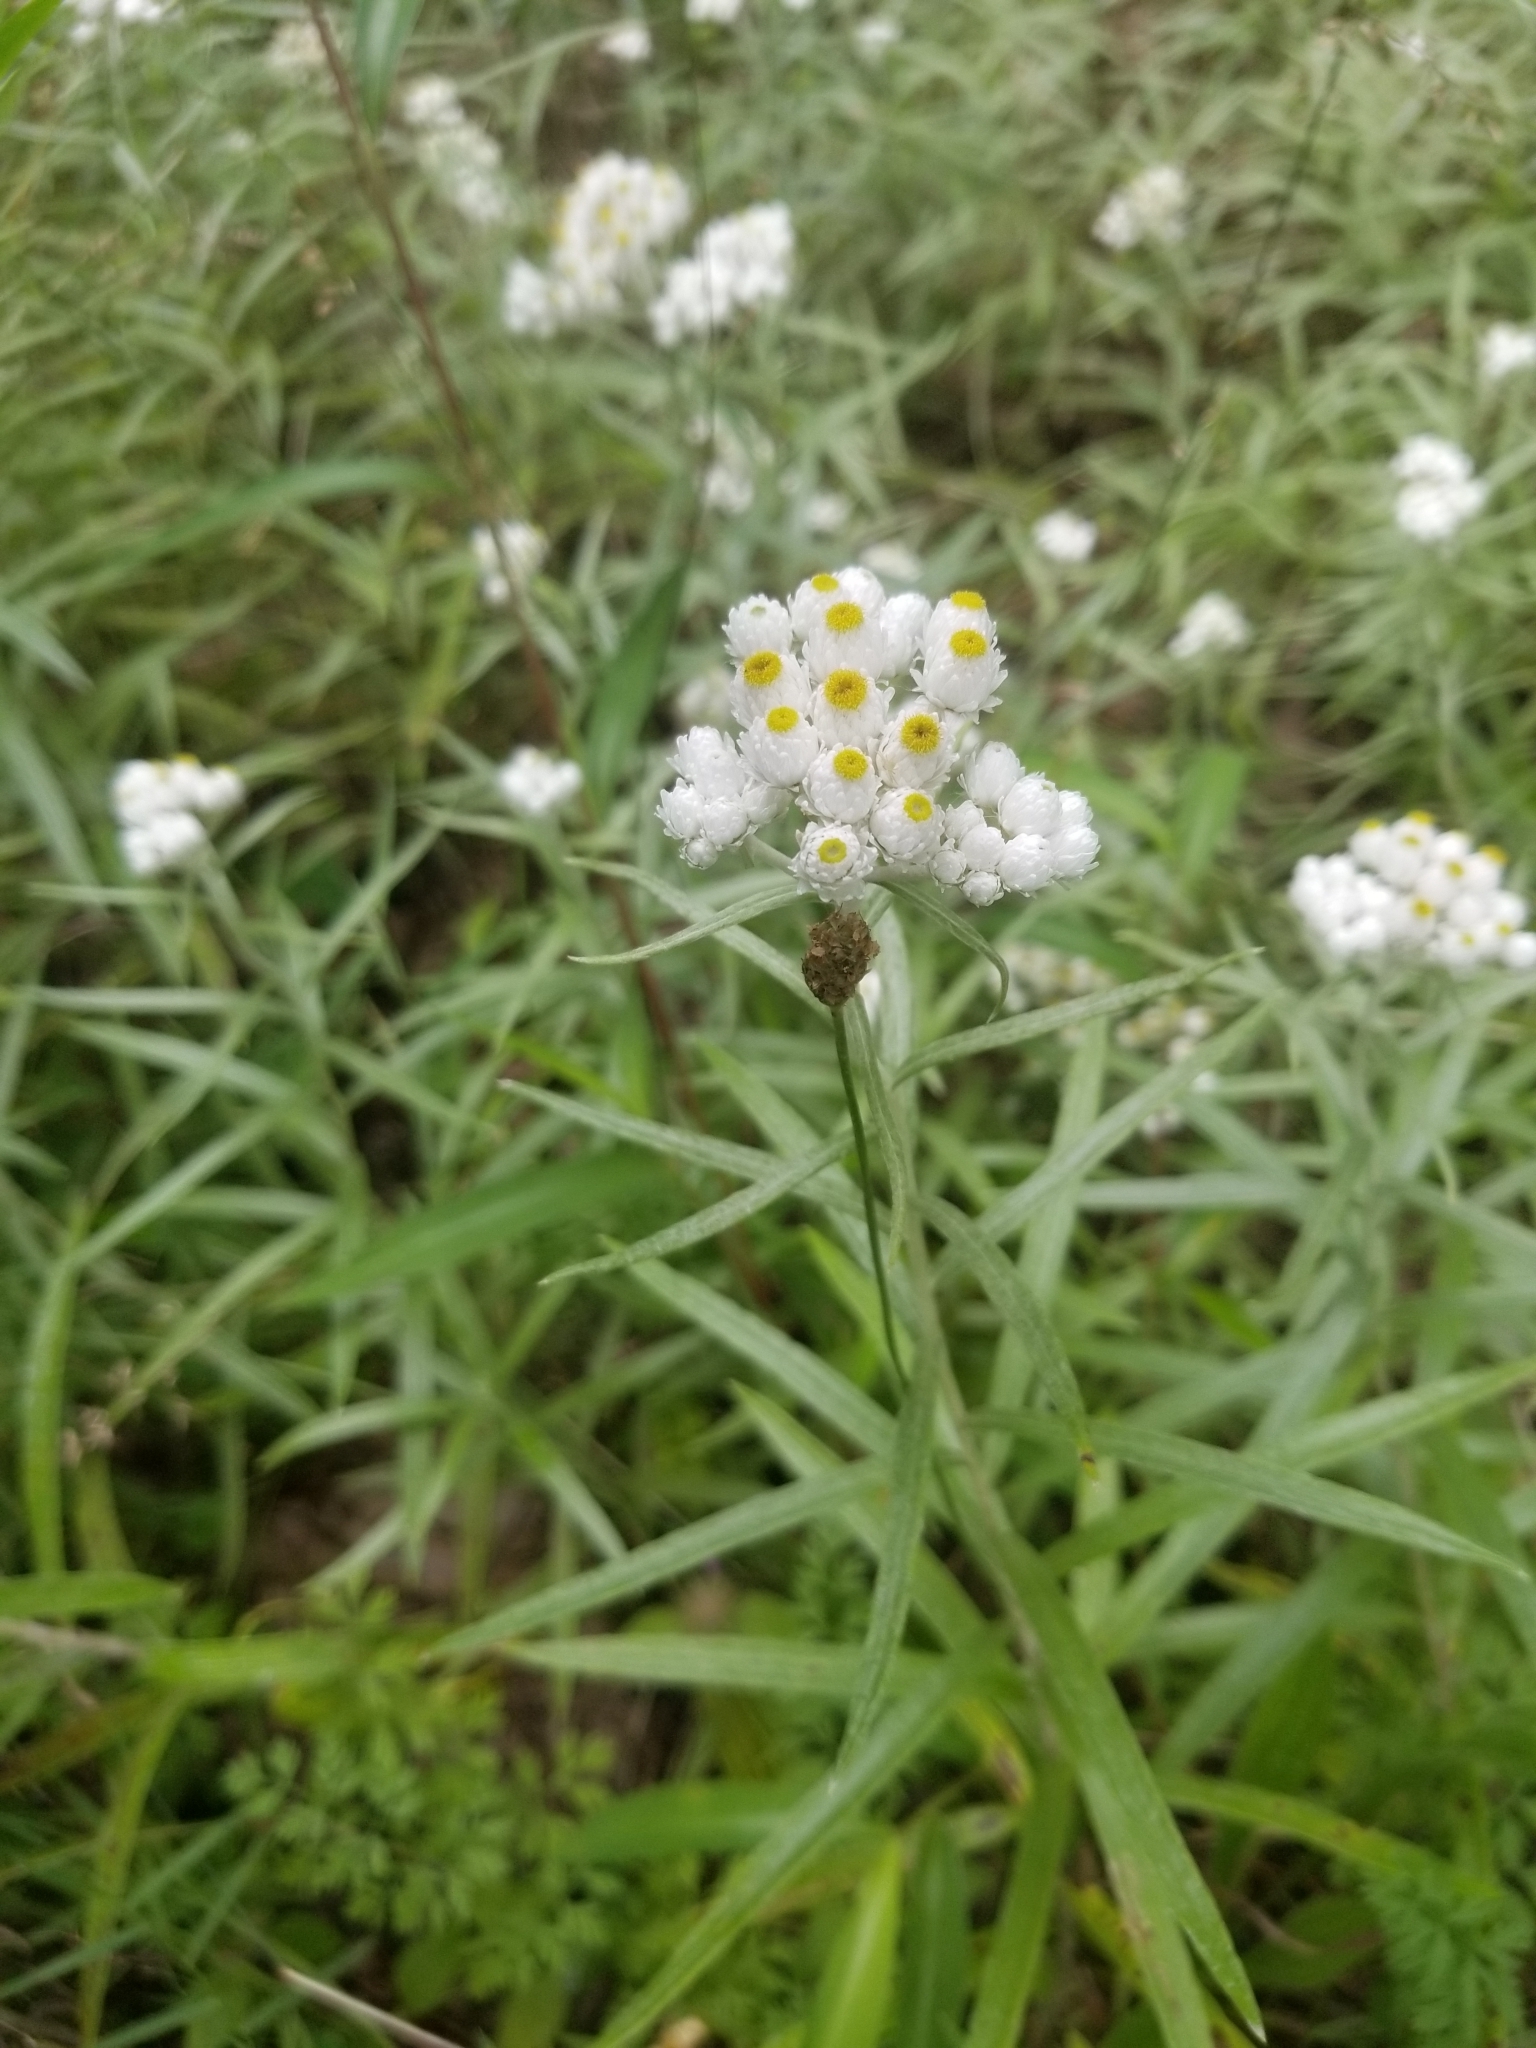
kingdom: Plantae
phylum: Tracheophyta
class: Magnoliopsida
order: Asterales
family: Asteraceae
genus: Anaphalis
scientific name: Anaphalis margaritacea
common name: Pearly everlasting
